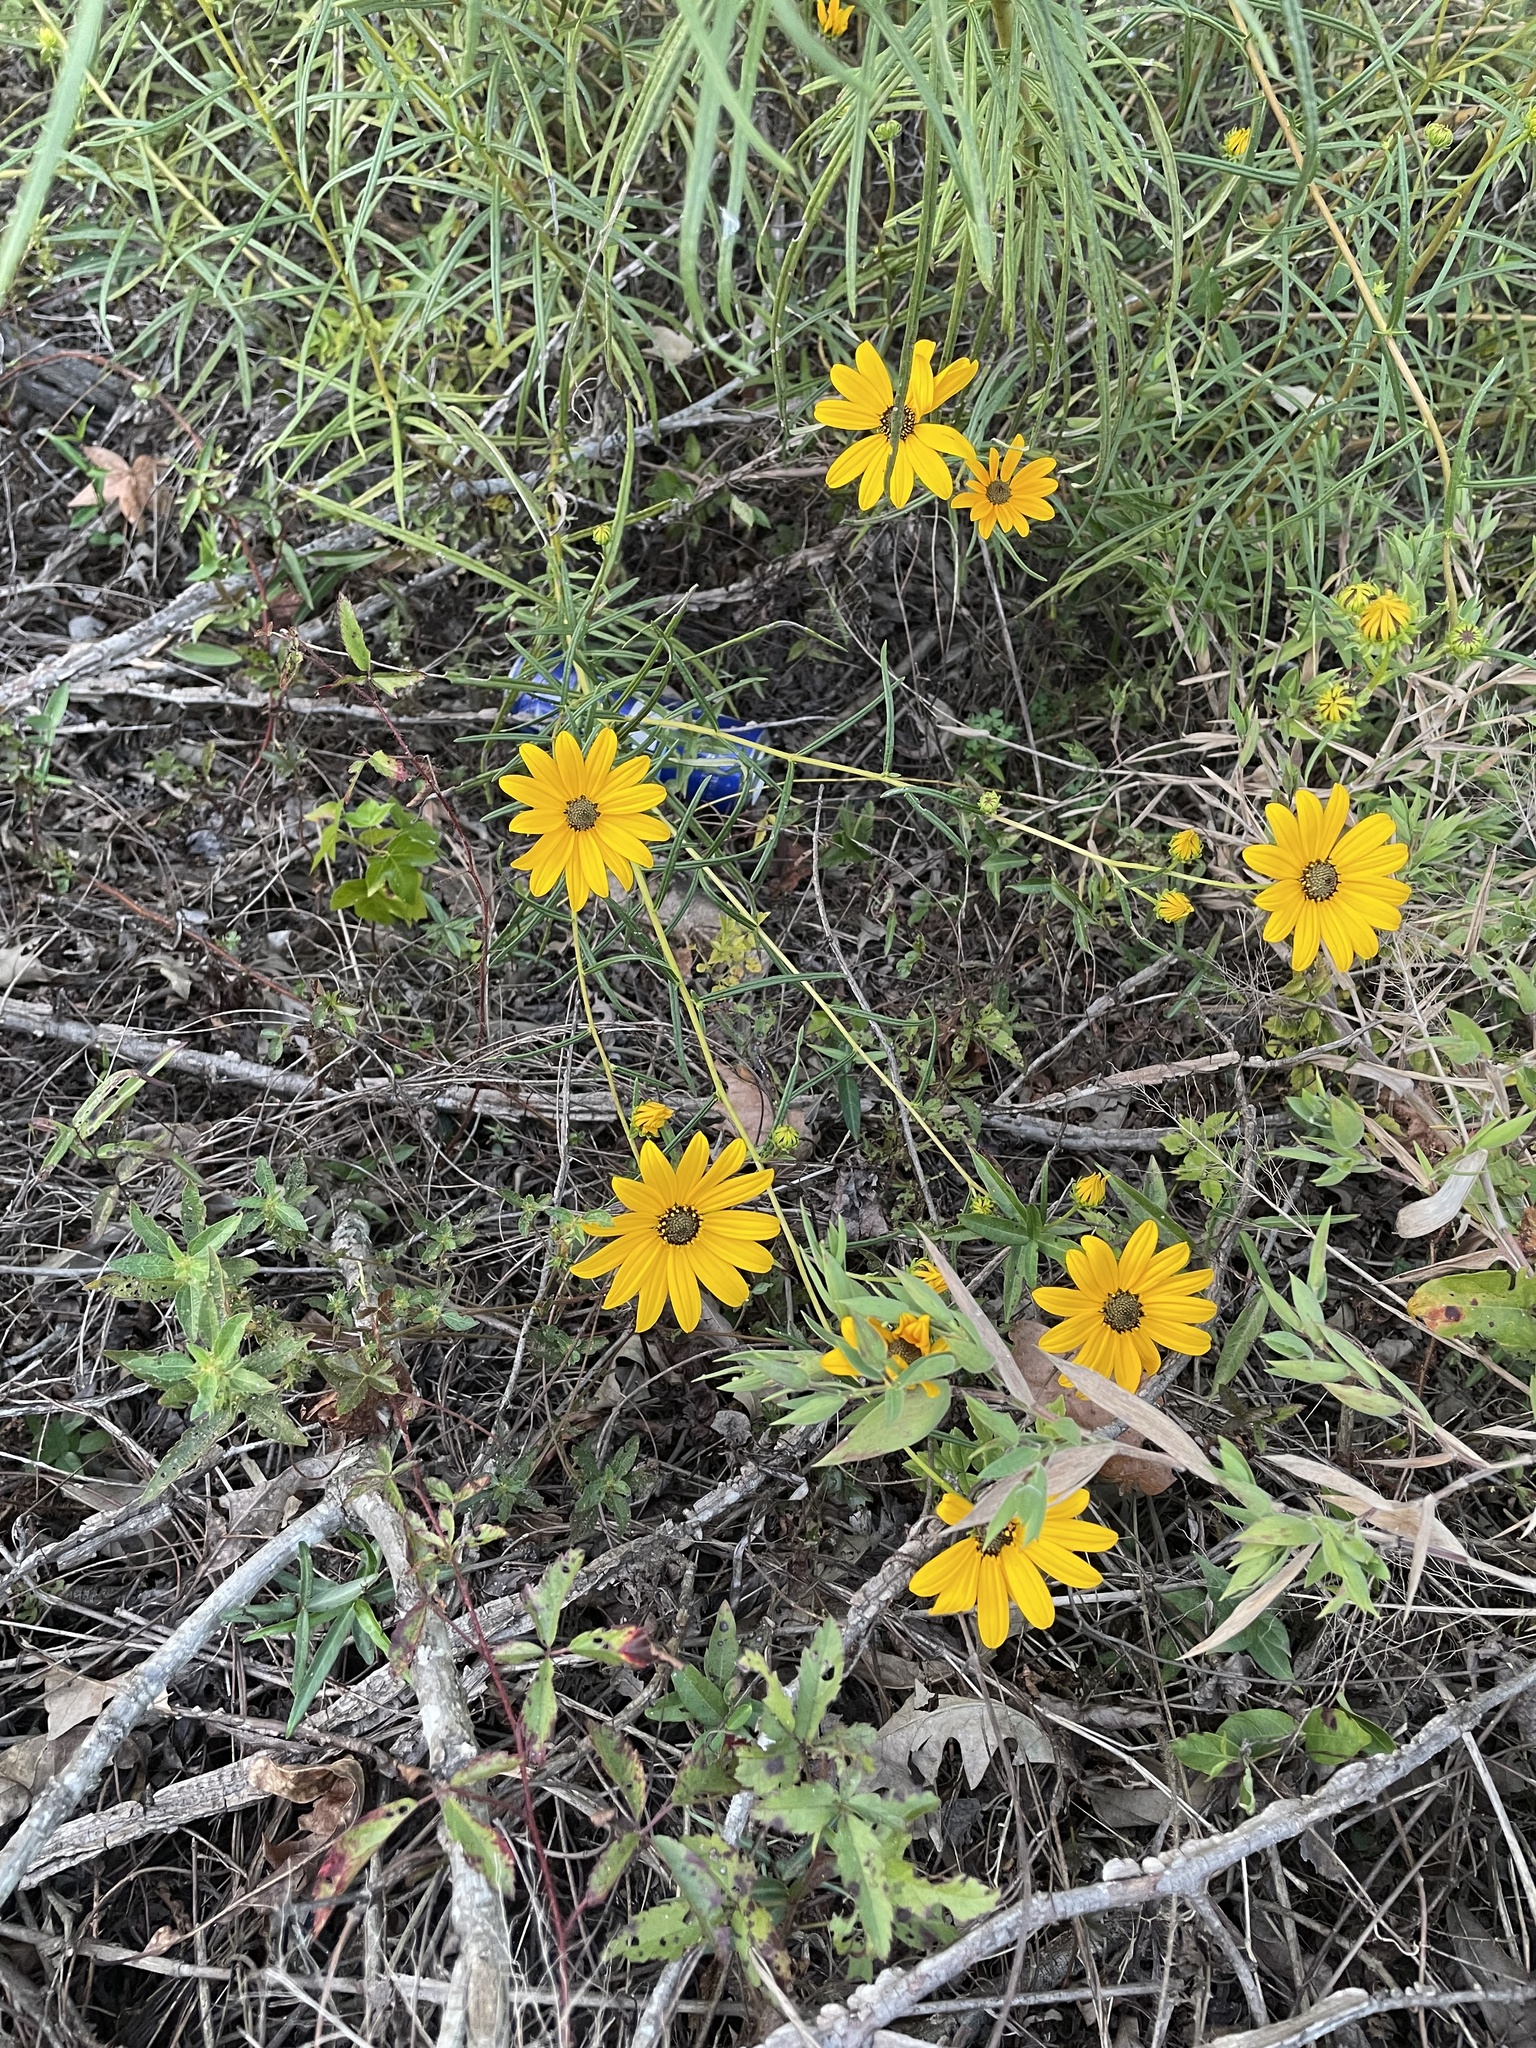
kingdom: Plantae
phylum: Tracheophyta
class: Magnoliopsida
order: Asterales
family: Asteraceae
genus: Helianthus
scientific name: Helianthus angustifolius
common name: Swamp sunflower
